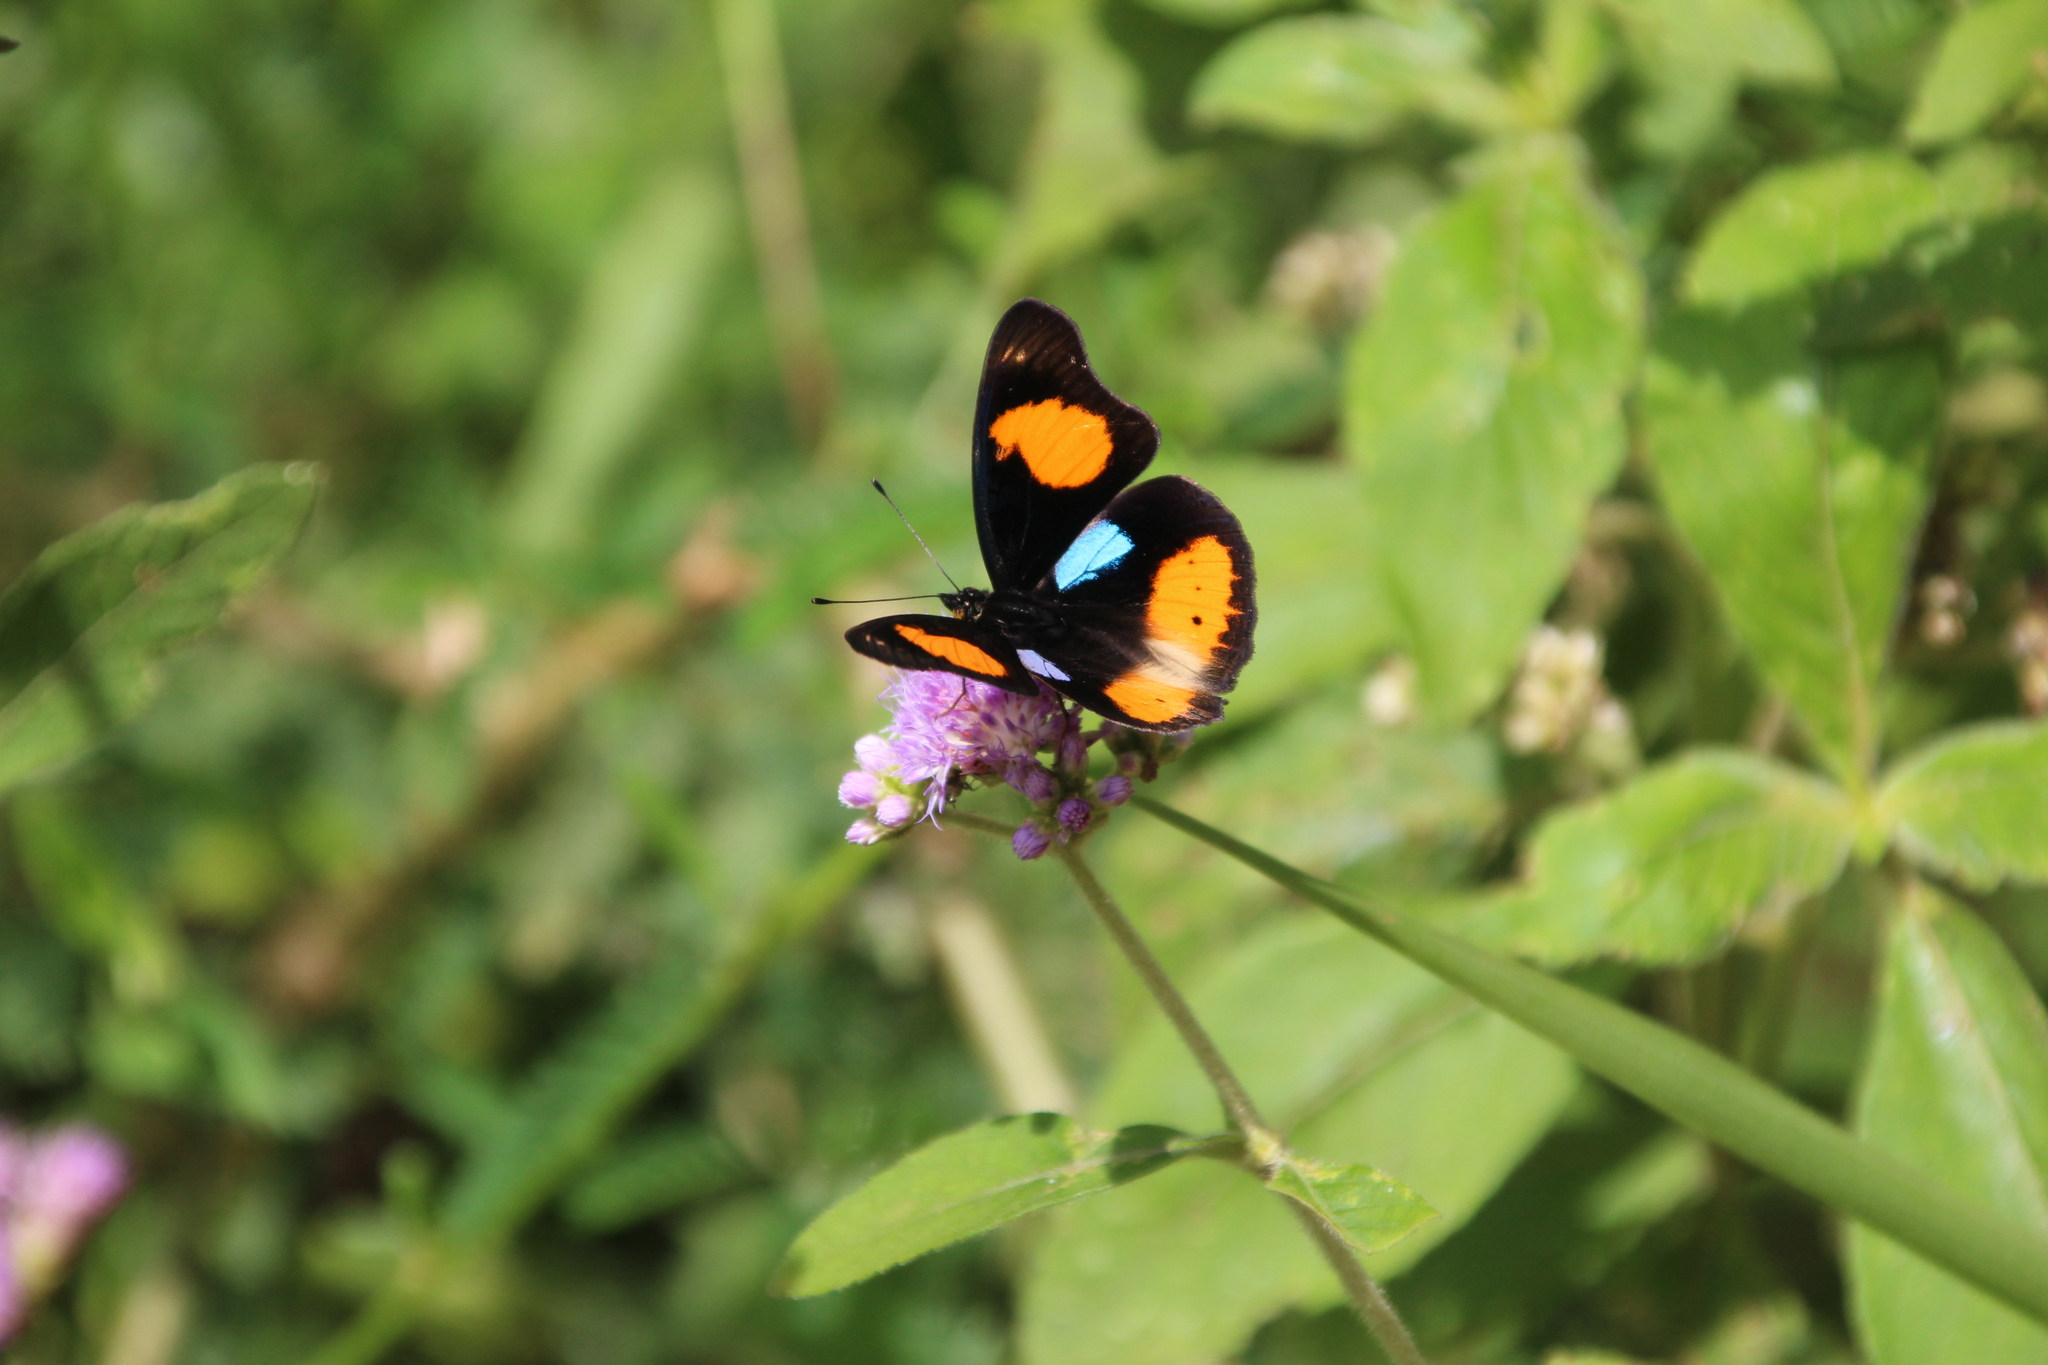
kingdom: Animalia
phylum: Arthropoda
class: Insecta
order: Lepidoptera
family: Nymphalidae
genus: Junonia
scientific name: Junonia westermanni
